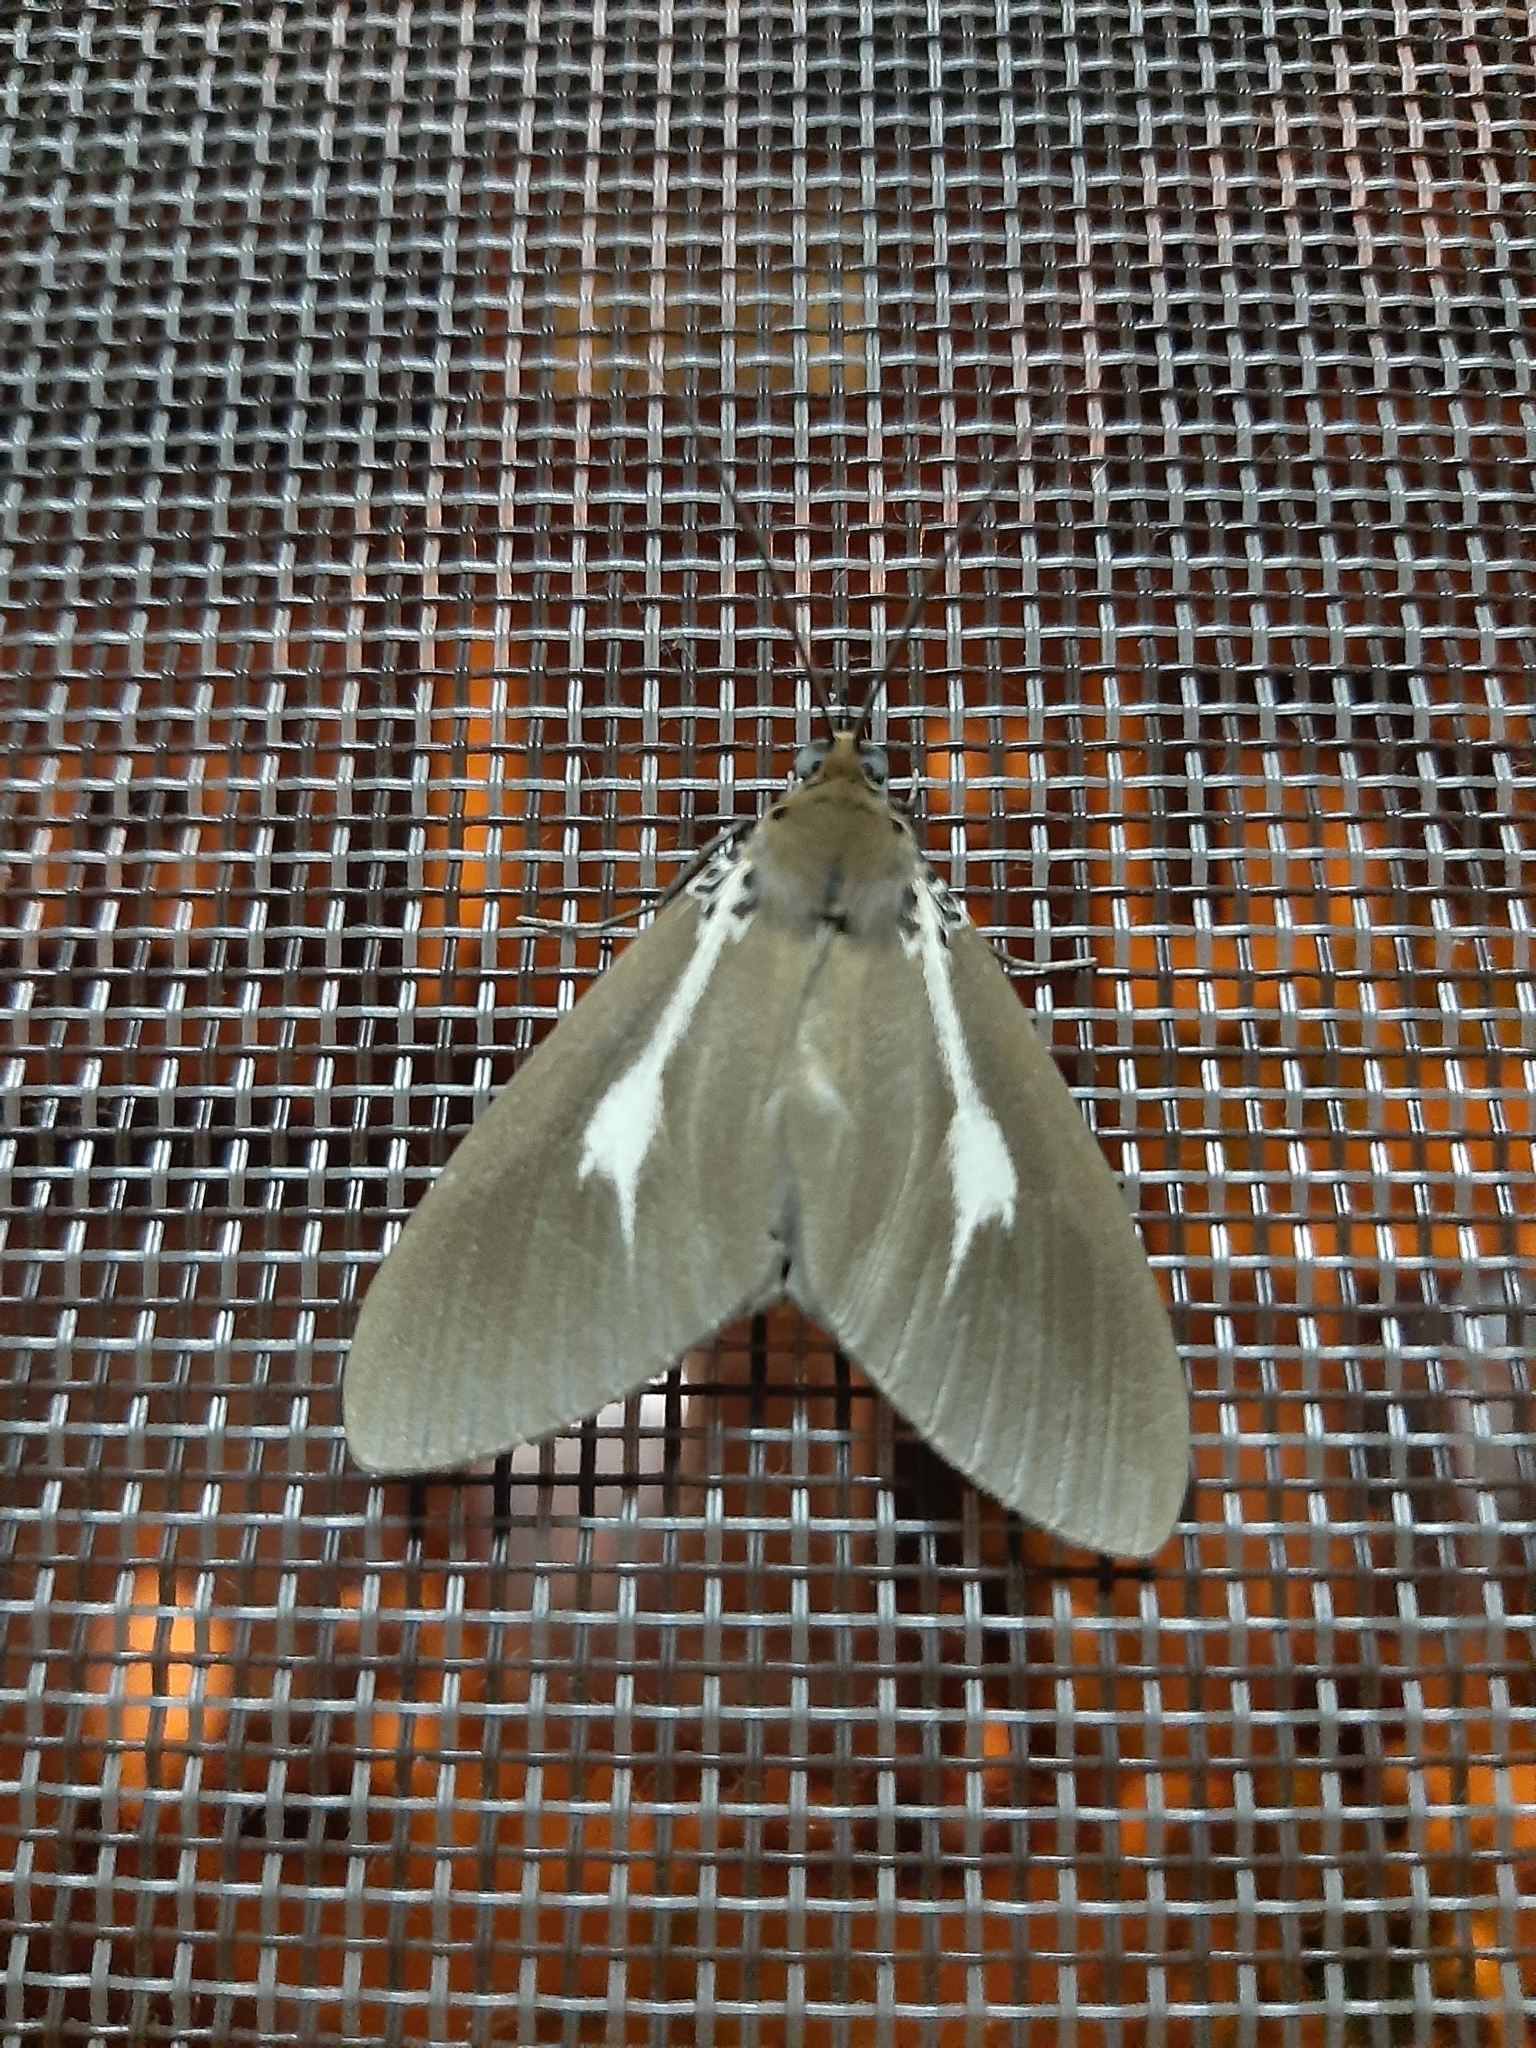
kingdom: Animalia
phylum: Arthropoda
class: Insecta
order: Lepidoptera
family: Erebidae
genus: Asota
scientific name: Asota heliconia
